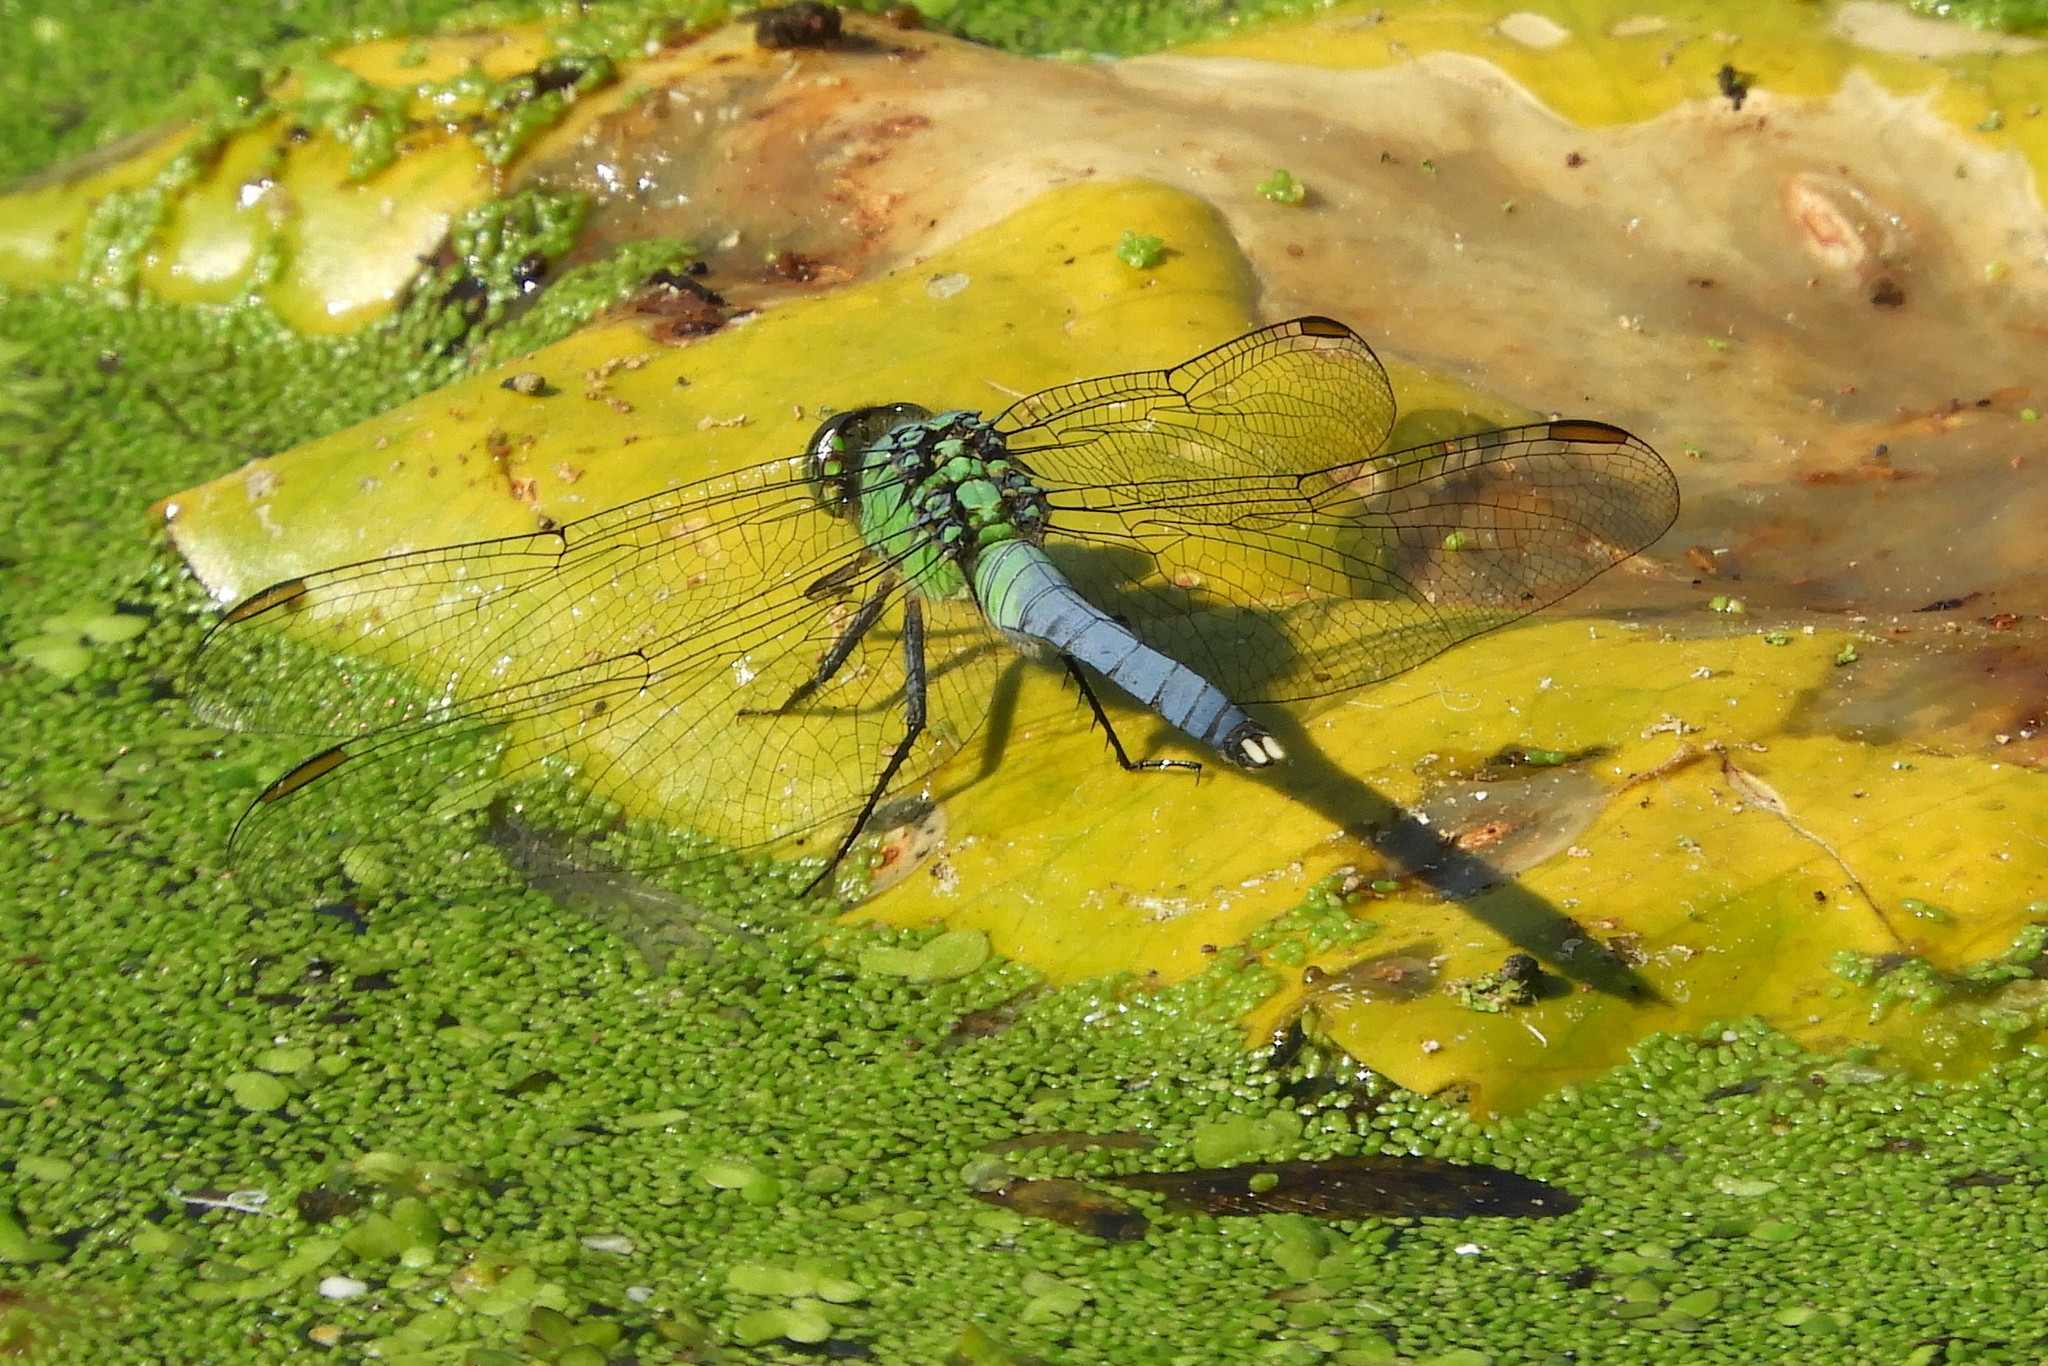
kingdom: Animalia
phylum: Arthropoda
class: Insecta
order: Odonata
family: Libellulidae
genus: Erythemis
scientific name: Erythemis simplicicollis
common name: Eastern pondhawk
